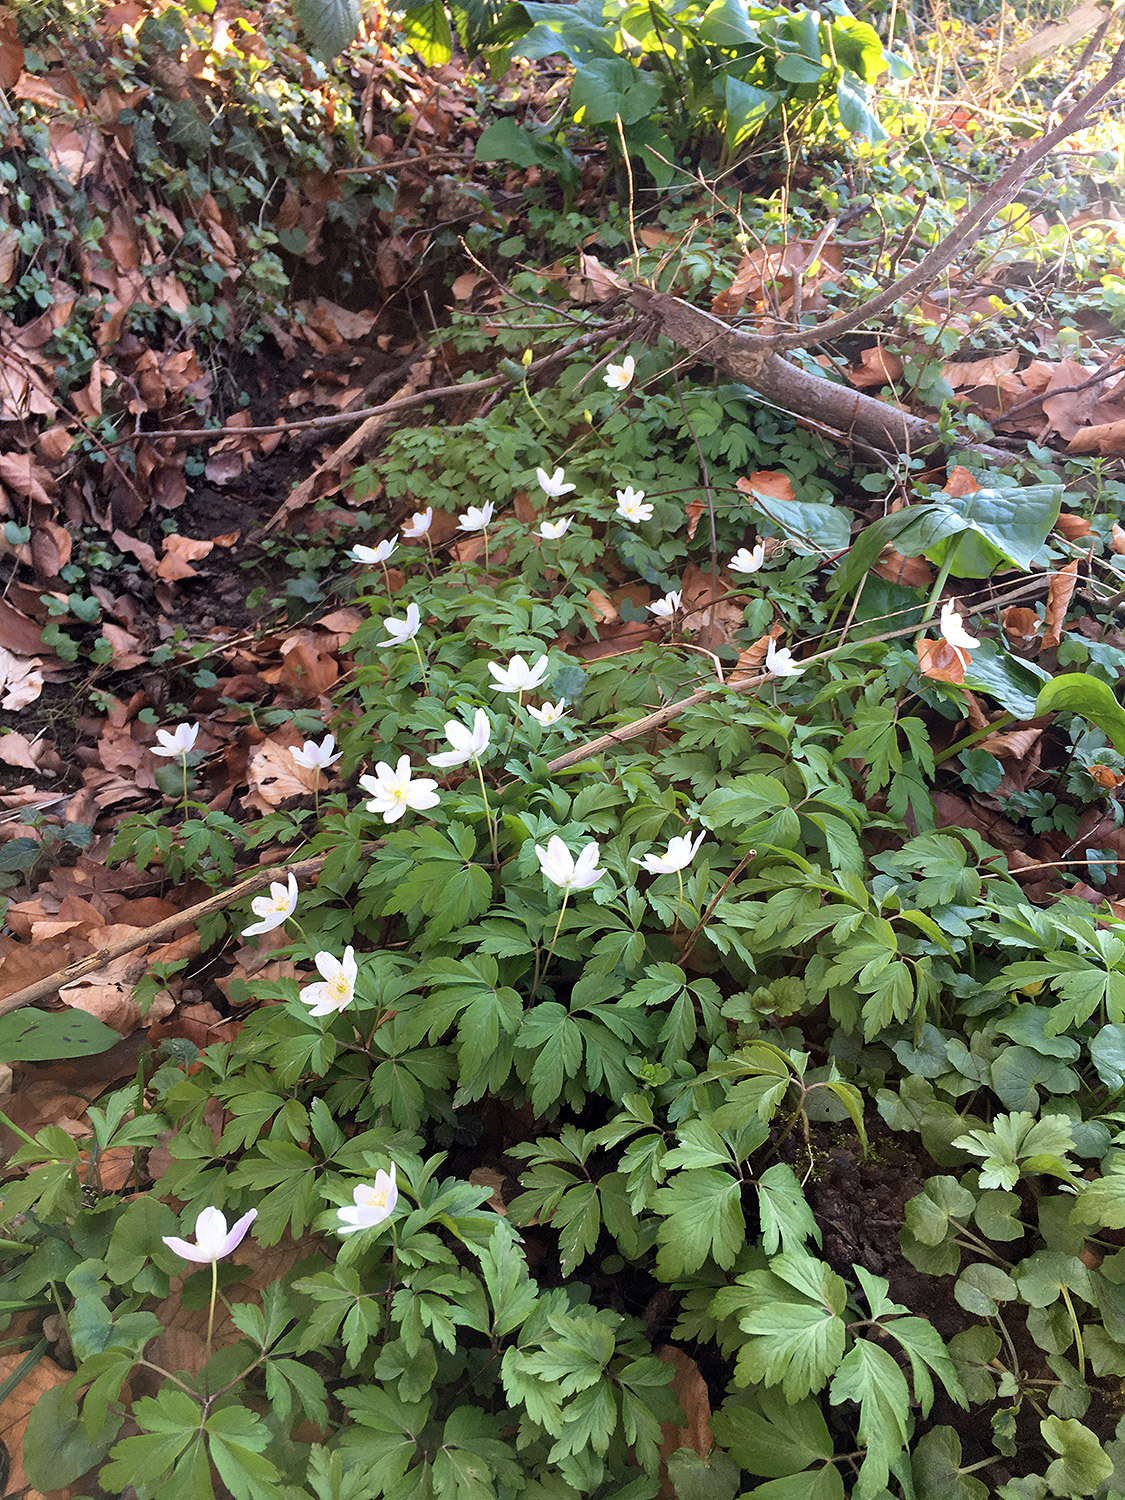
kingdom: Plantae
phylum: Tracheophyta
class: Magnoliopsida
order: Ranunculales
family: Ranunculaceae
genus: Anemone
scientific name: Anemone nemorosa
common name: Wood anemone
